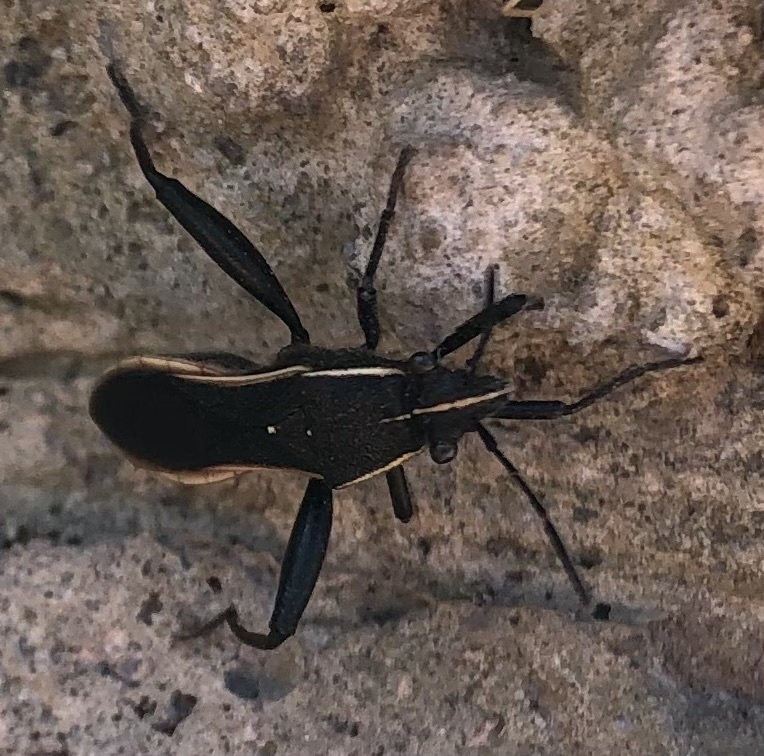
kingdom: Animalia
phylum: Arthropoda
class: Insecta
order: Hemiptera
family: Alydidae
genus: Camptopus
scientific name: Camptopus tragacanthae
